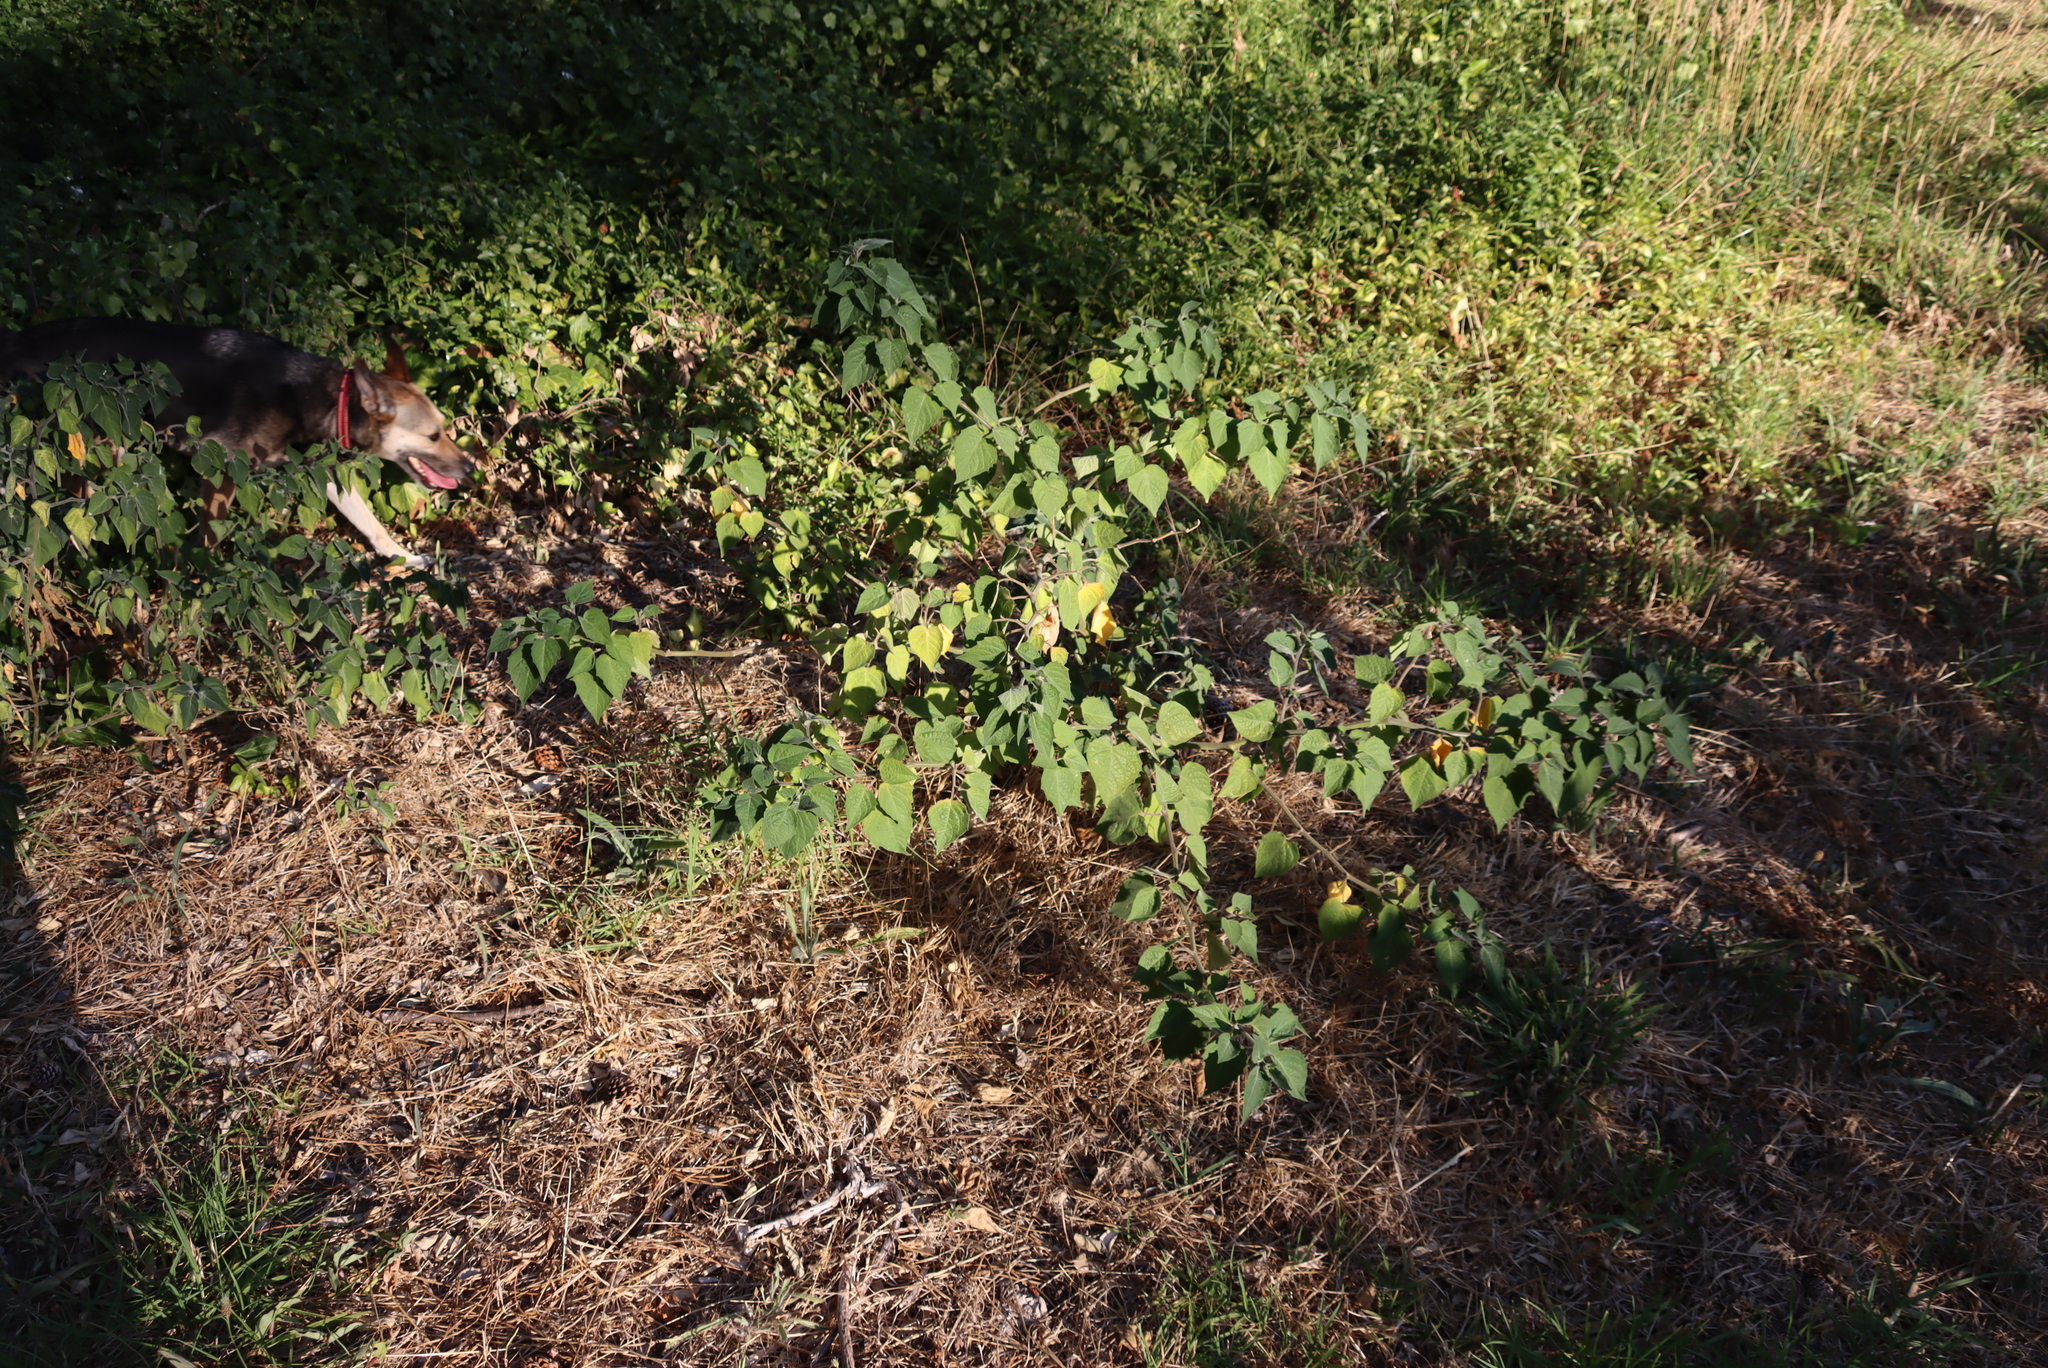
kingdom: Plantae
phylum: Tracheophyta
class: Magnoliopsida
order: Solanales
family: Solanaceae
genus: Physalis
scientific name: Physalis peruviana
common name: Cape-gooseberry
